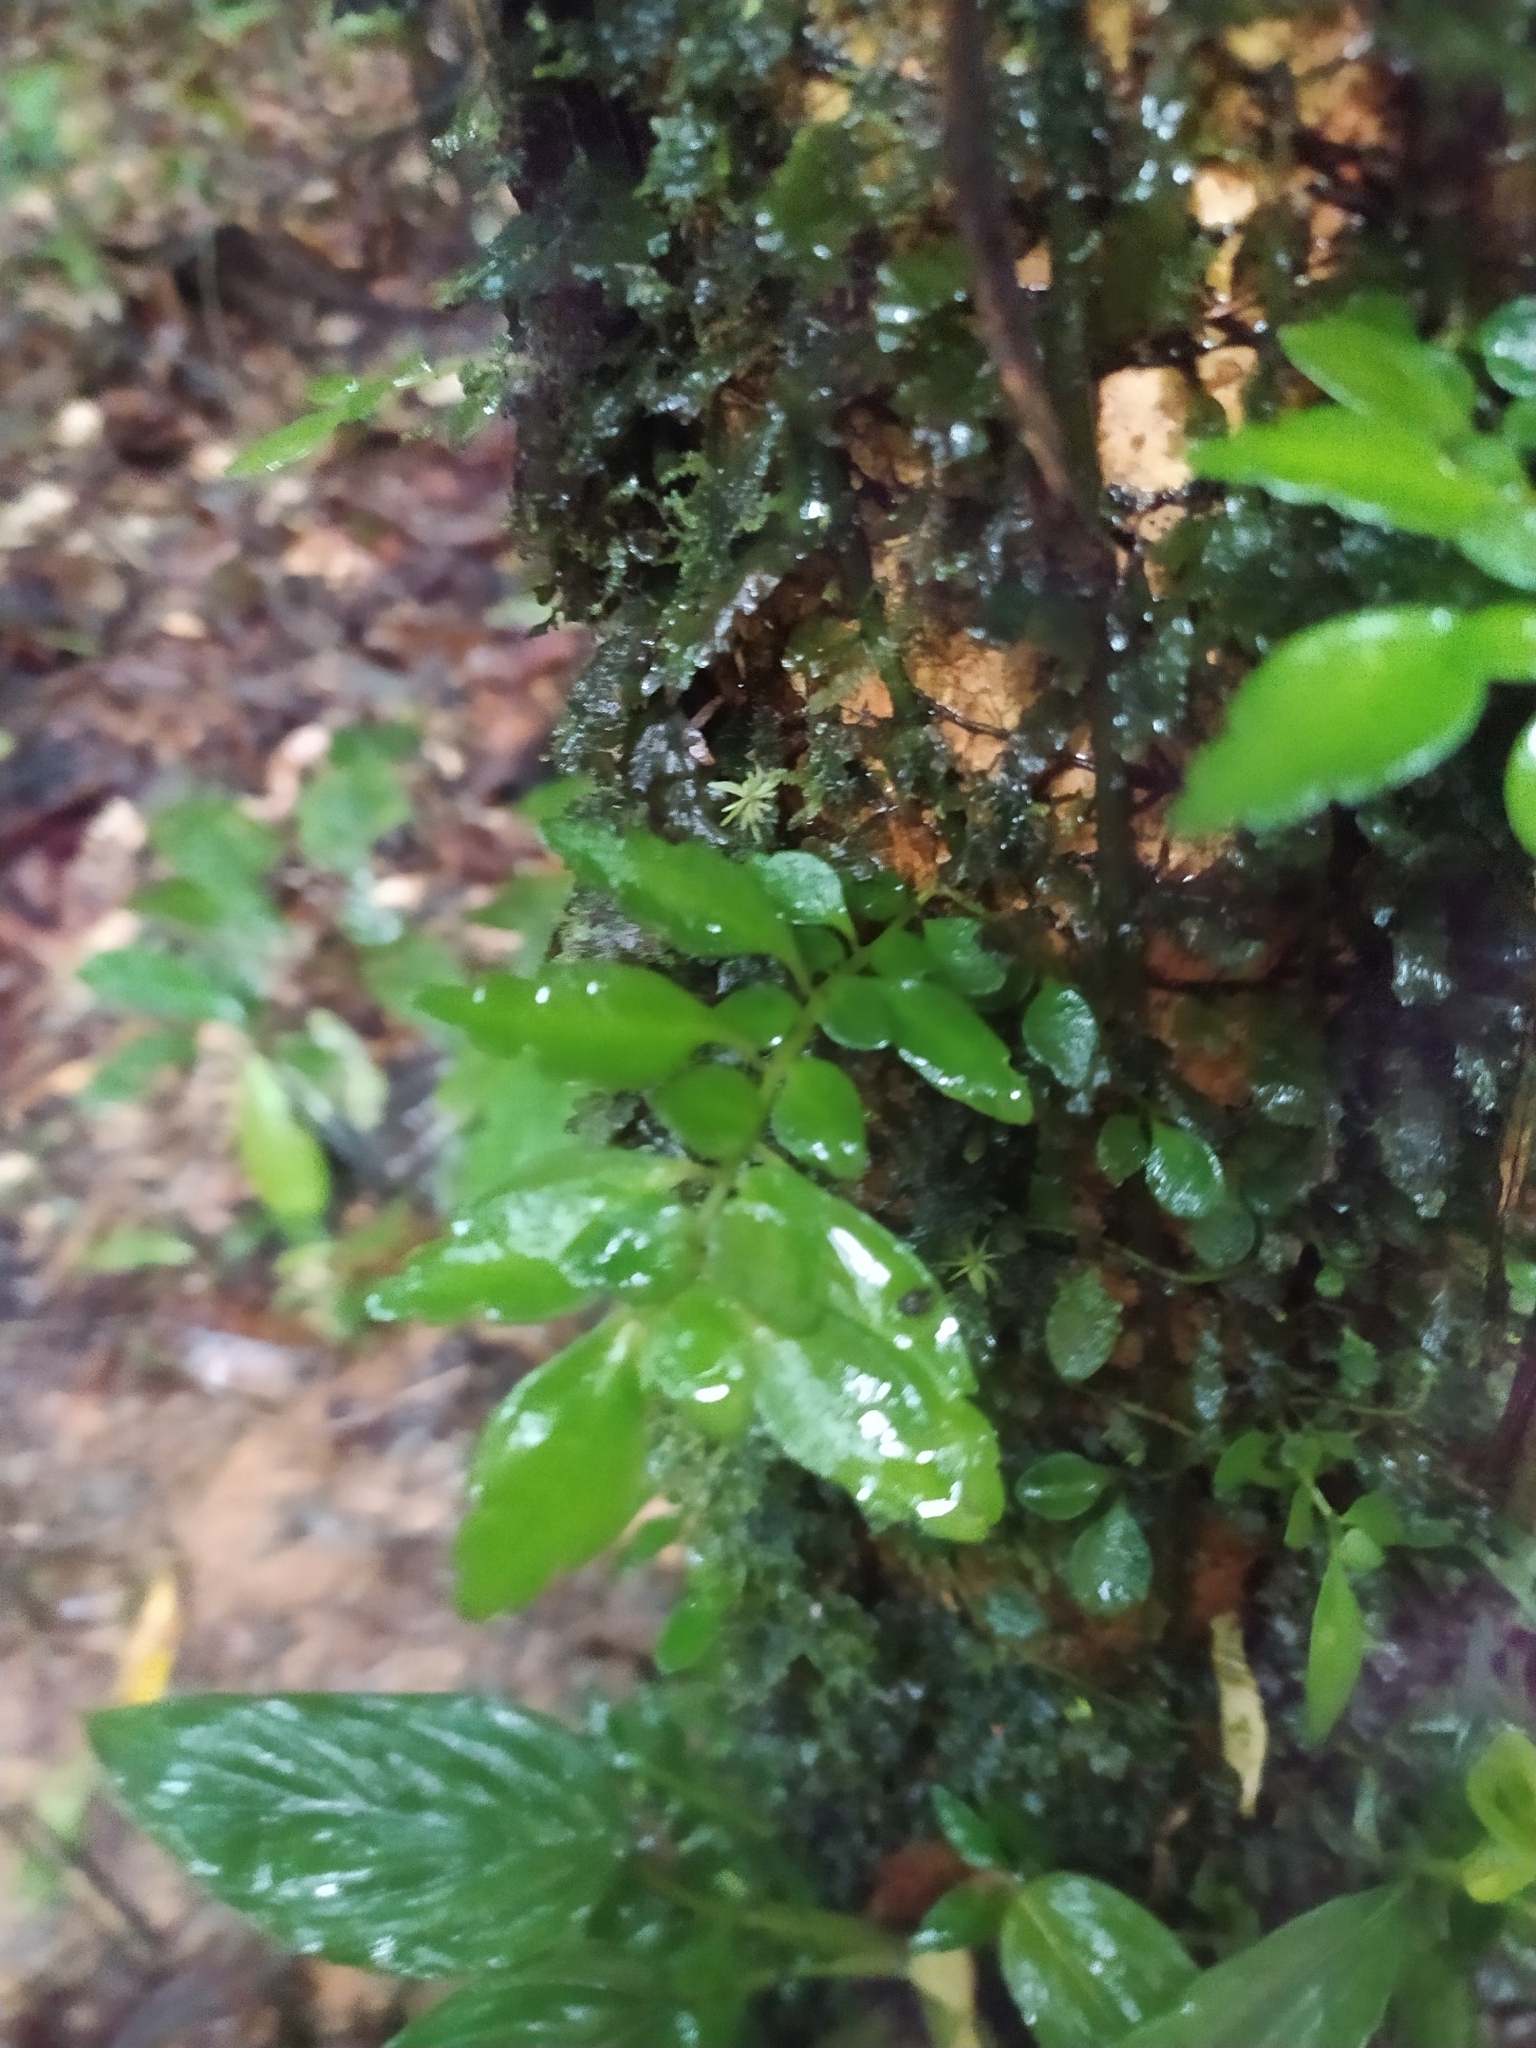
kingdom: Plantae
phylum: Tracheophyta
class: Magnoliopsida
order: Rosales
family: Urticaceae
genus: Pilea
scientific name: Pilea imparifolia
